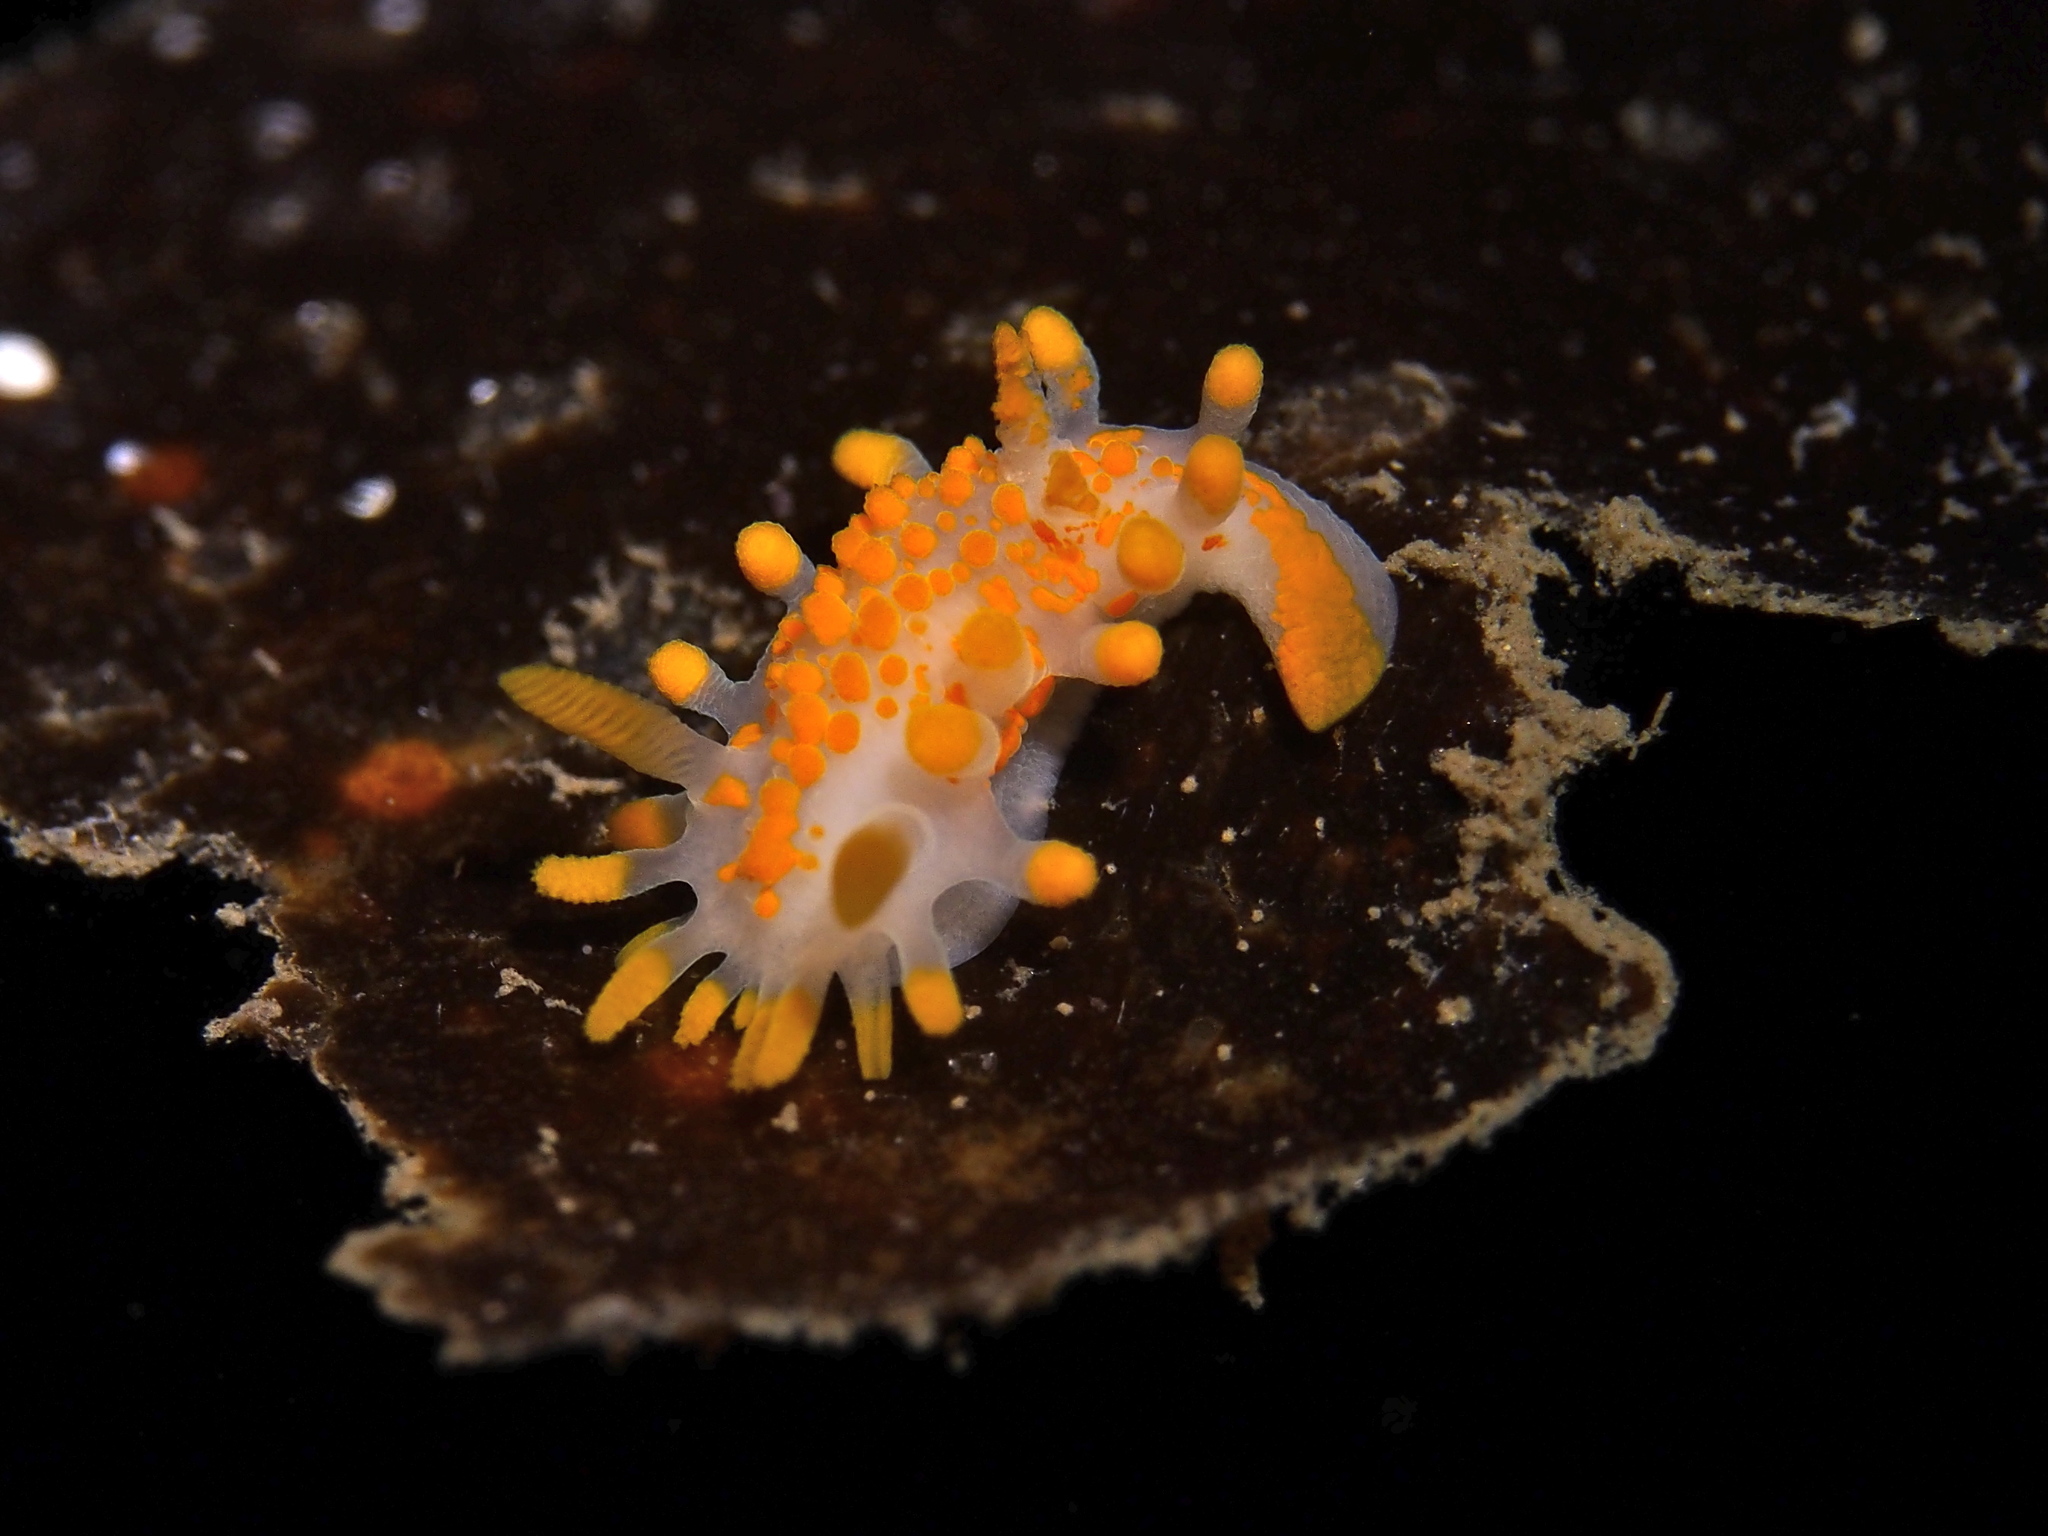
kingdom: Animalia
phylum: Mollusca
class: Gastropoda
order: Nudibranchia
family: Polyceridae
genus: Limacia
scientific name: Limacia clavigera
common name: Orange-clubbed sea slug
